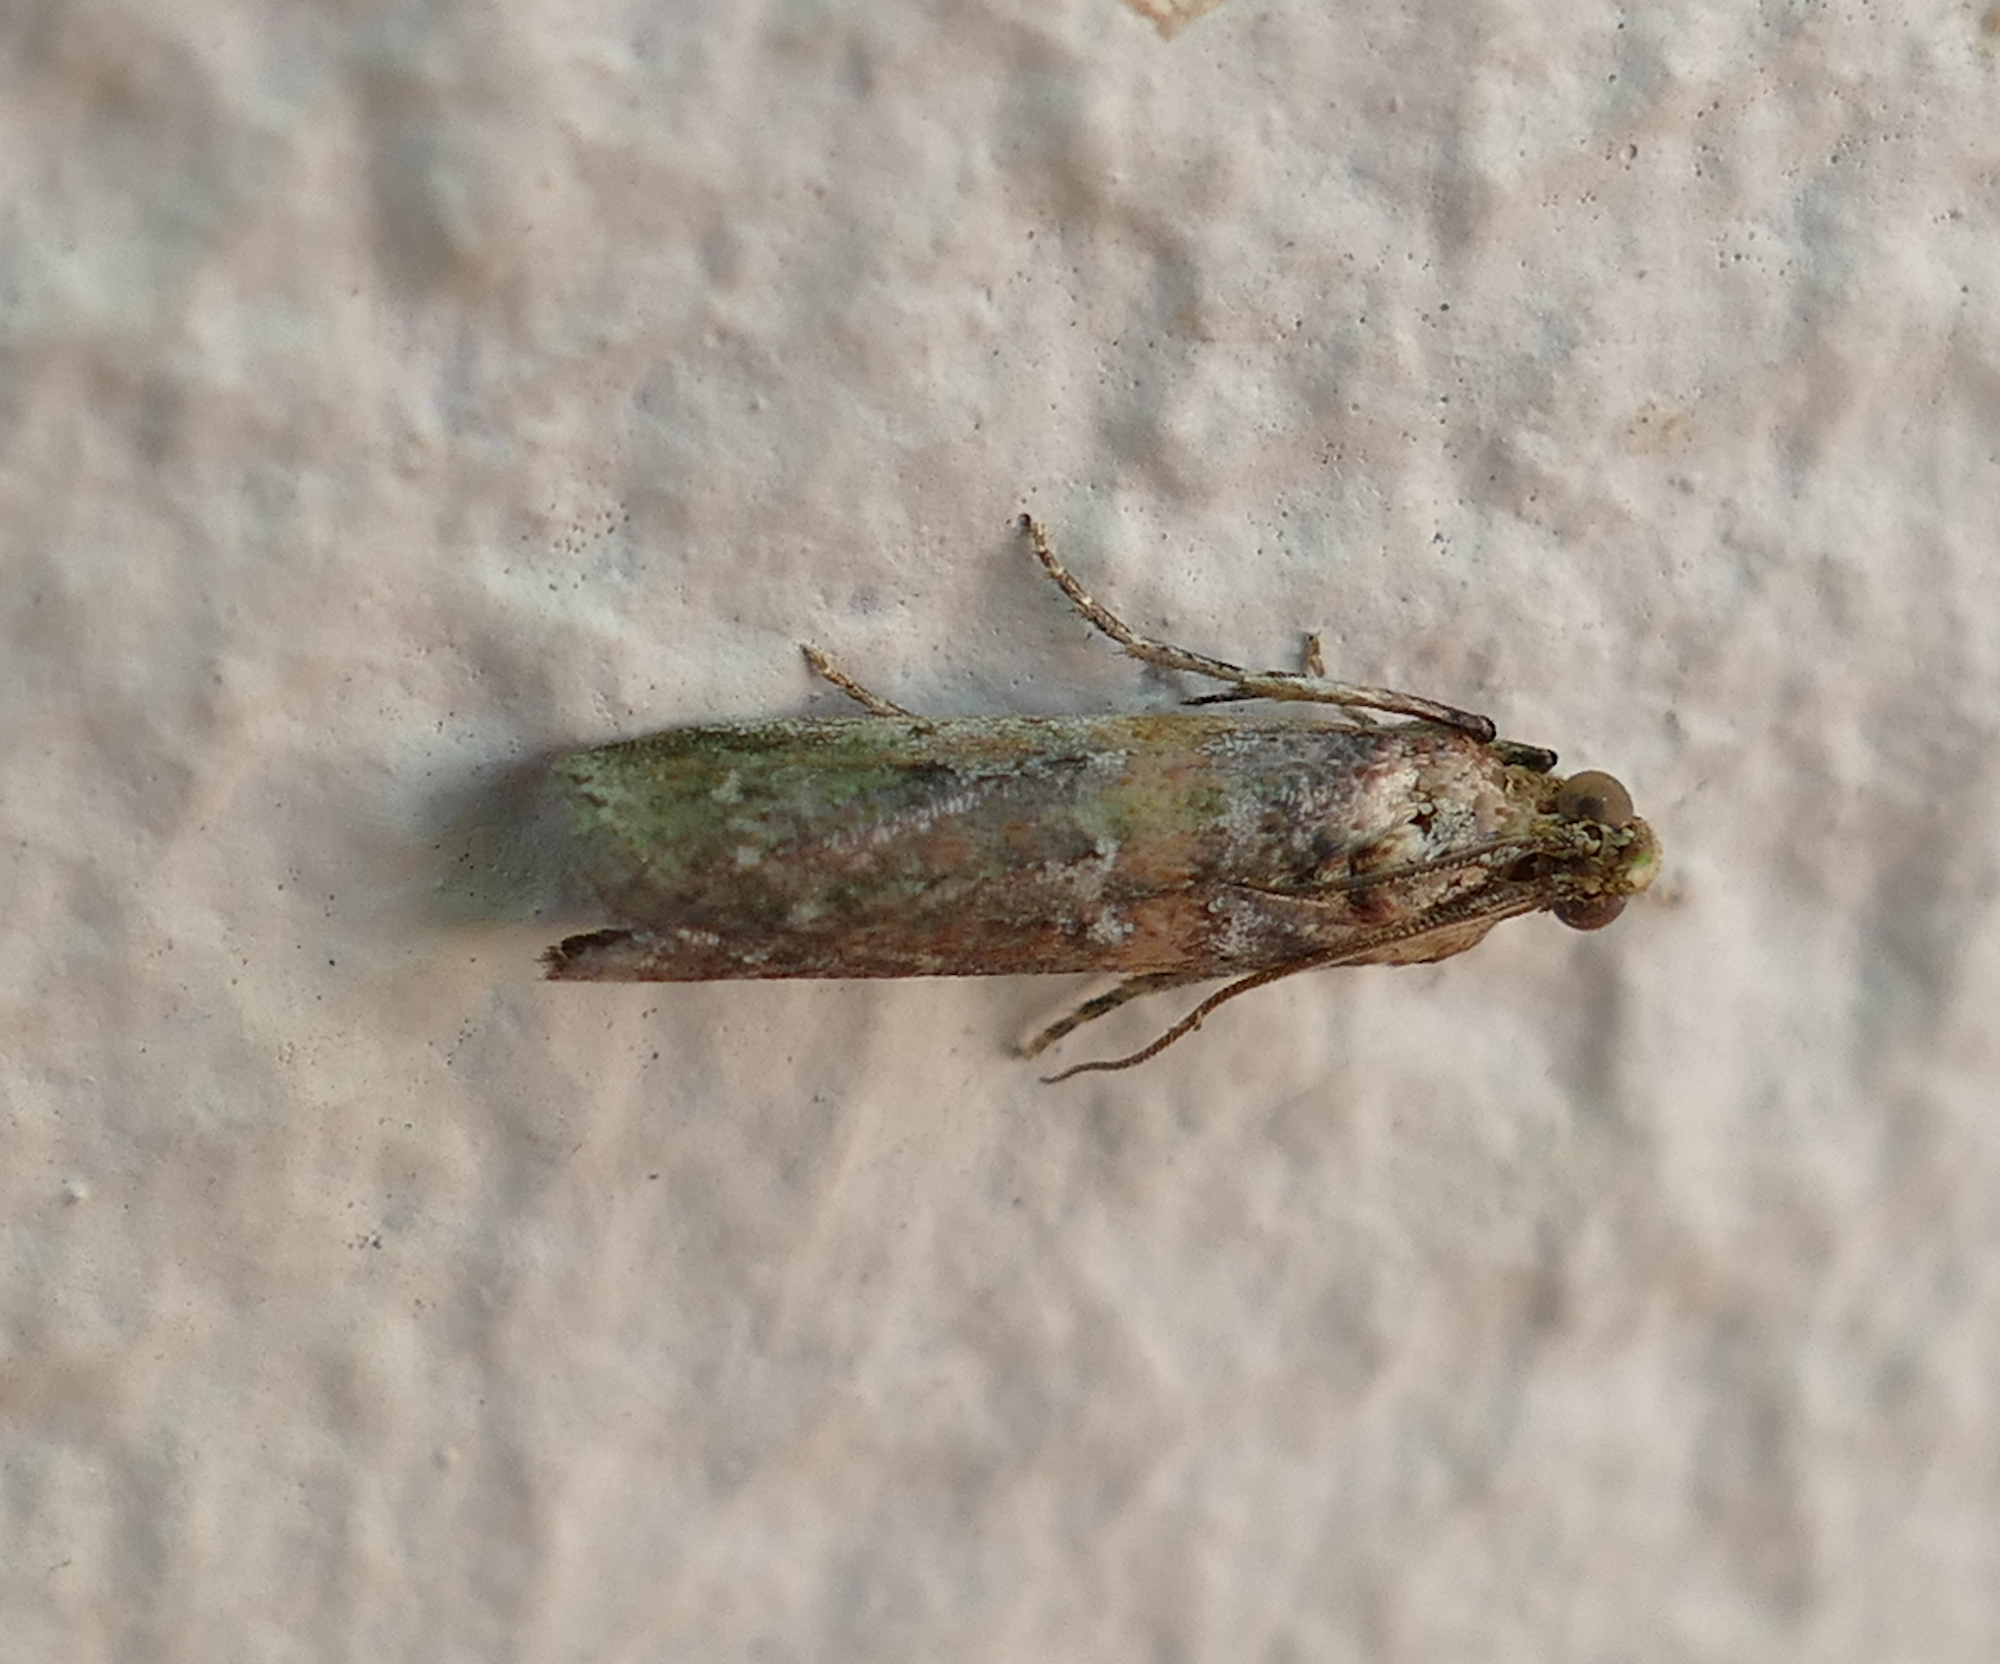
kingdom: Animalia
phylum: Arthropoda
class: Insecta
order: Lepidoptera
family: Pyralidae
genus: Adelphia
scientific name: Adelphia petrella
